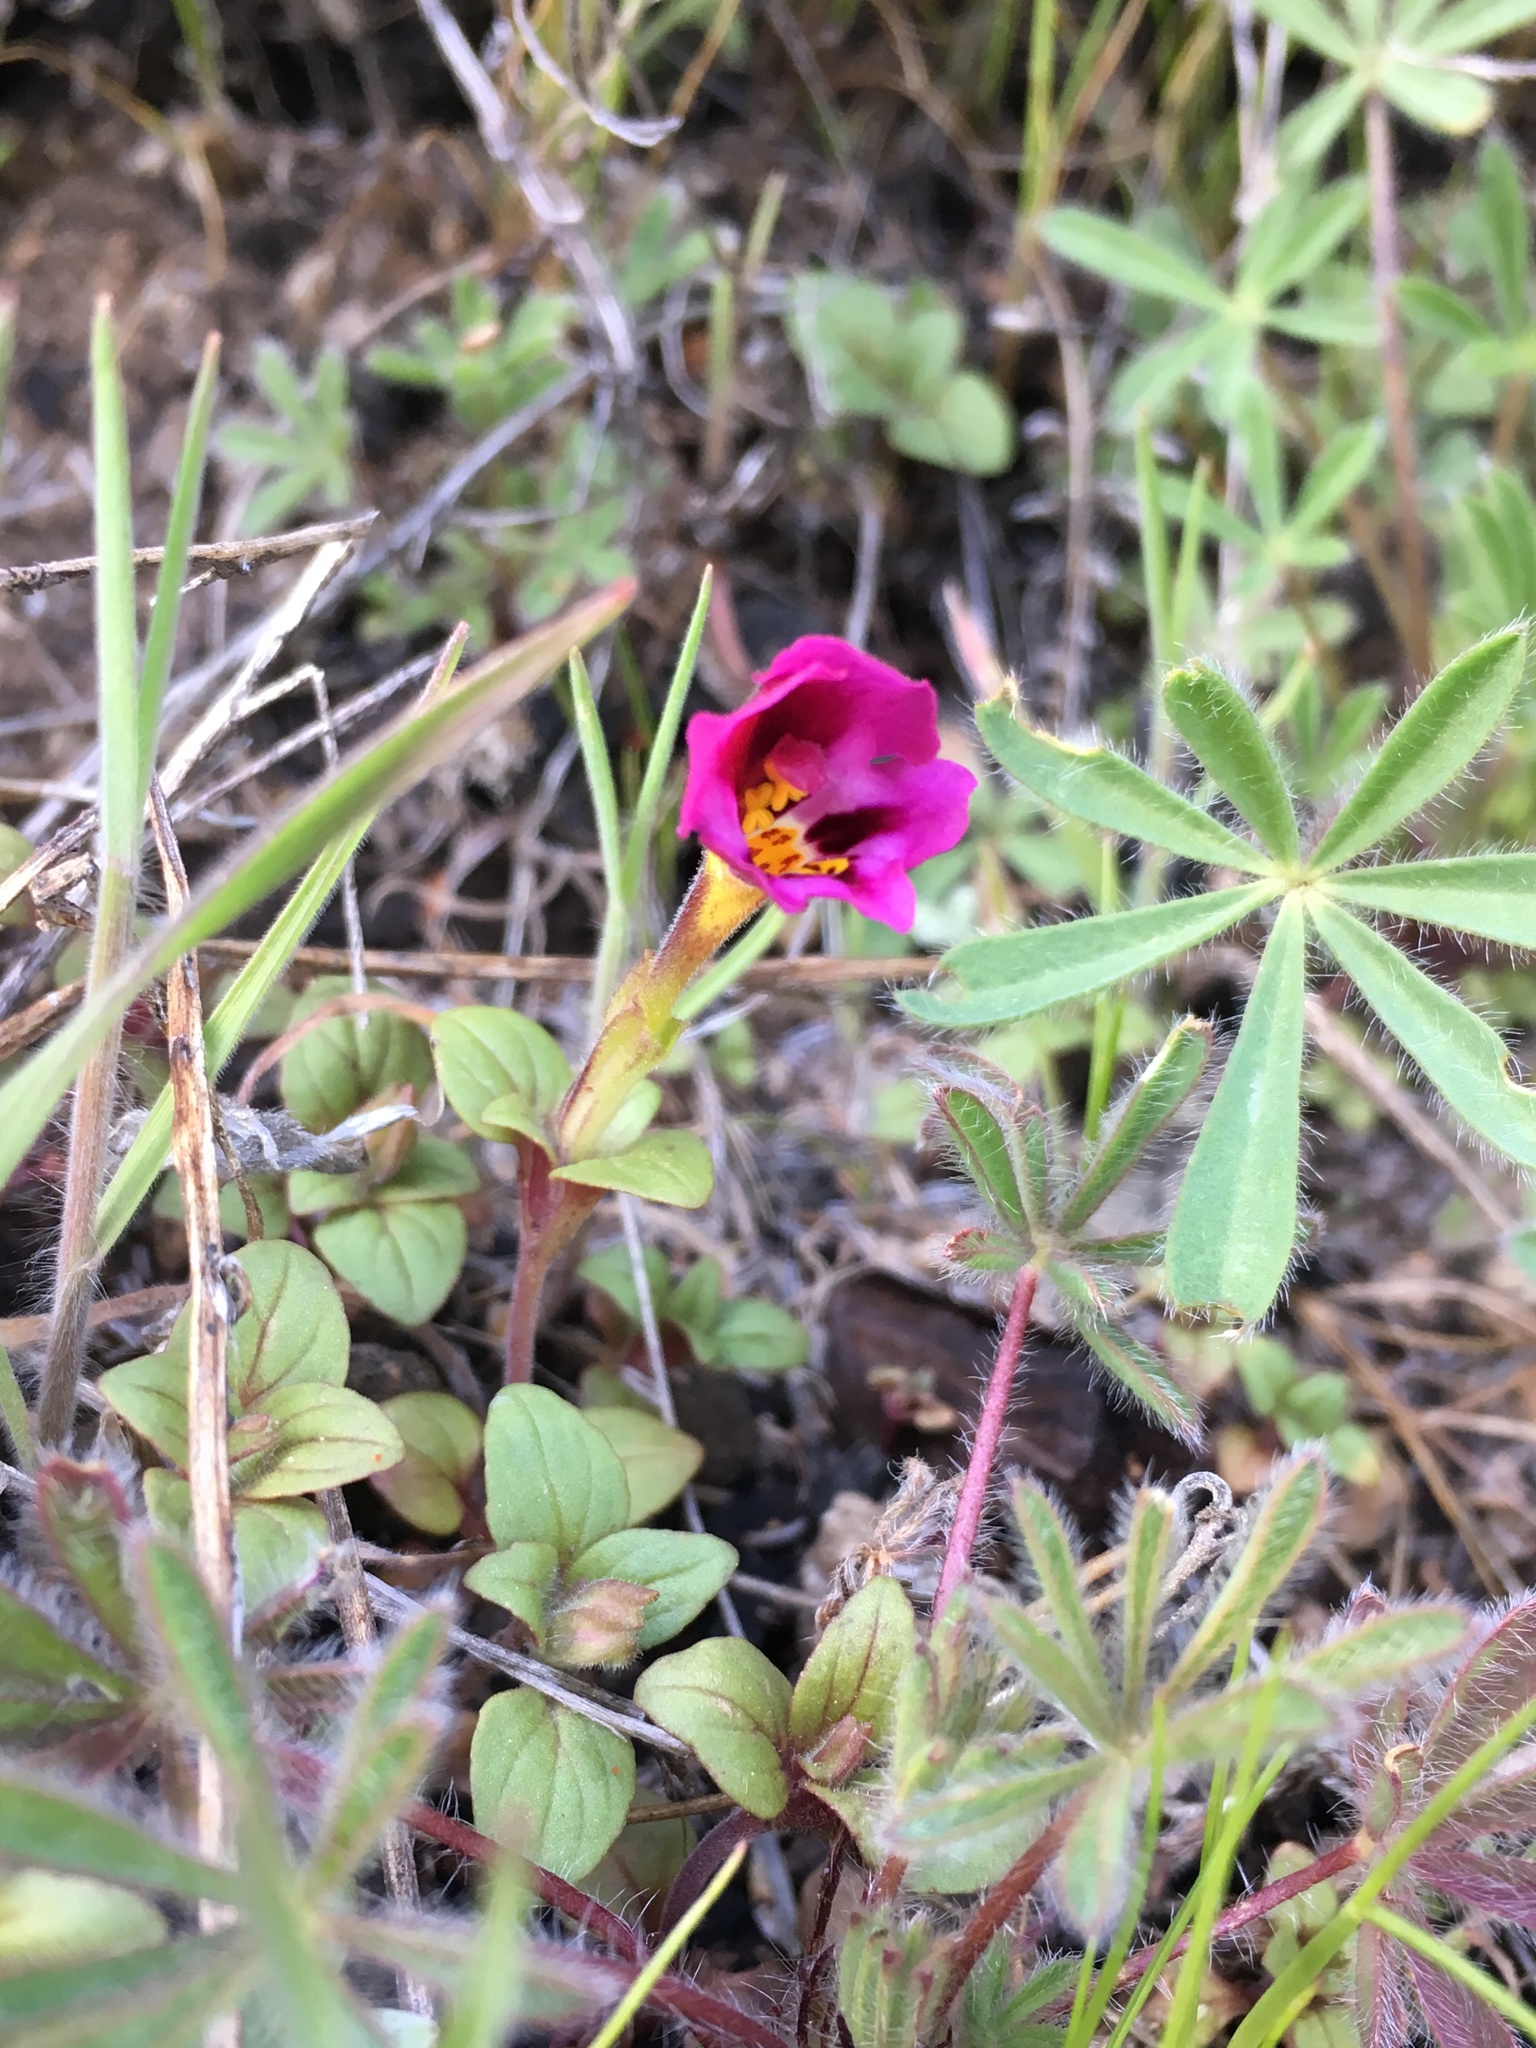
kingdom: Plantae
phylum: Tracheophyta
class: Magnoliopsida
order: Lamiales
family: Phrymaceae
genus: Diplacus
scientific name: Diplacus kelloggii
